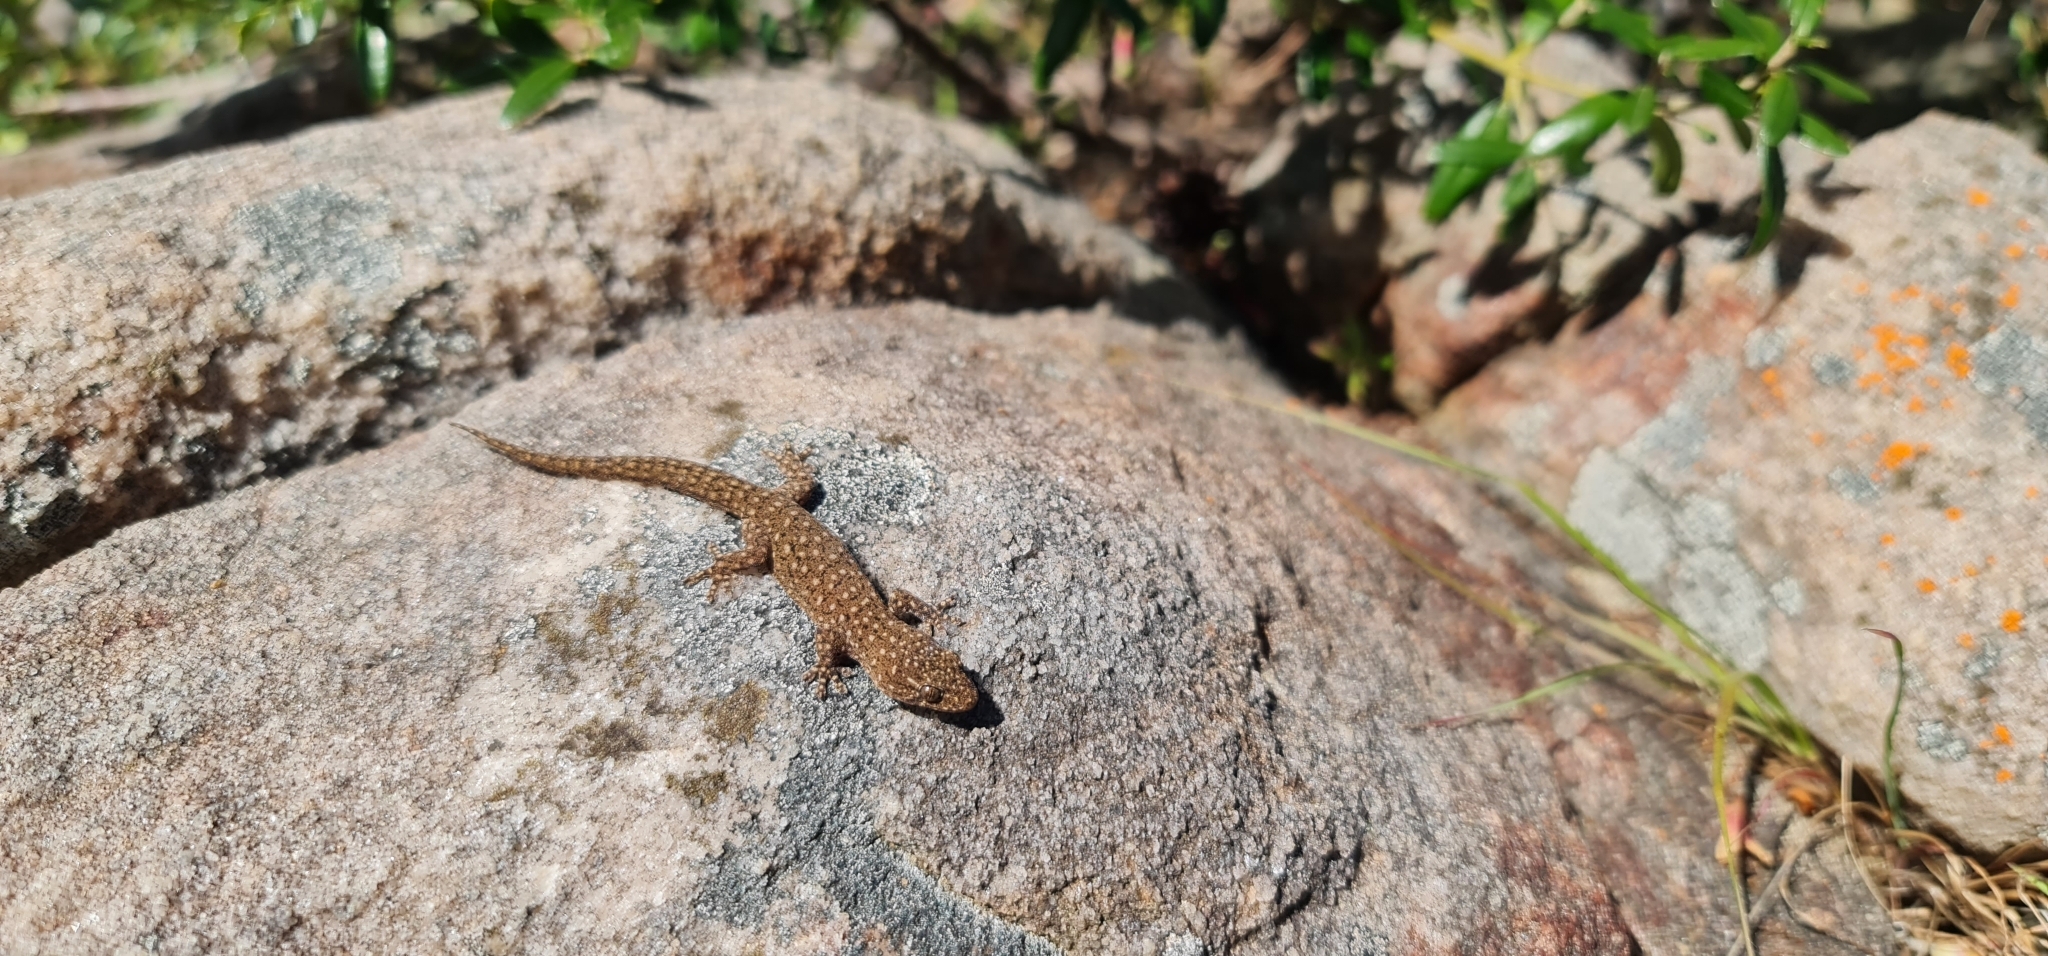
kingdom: Animalia
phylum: Chordata
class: Squamata
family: Gekkonidae
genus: Gehyra
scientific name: Gehyra lazelli
